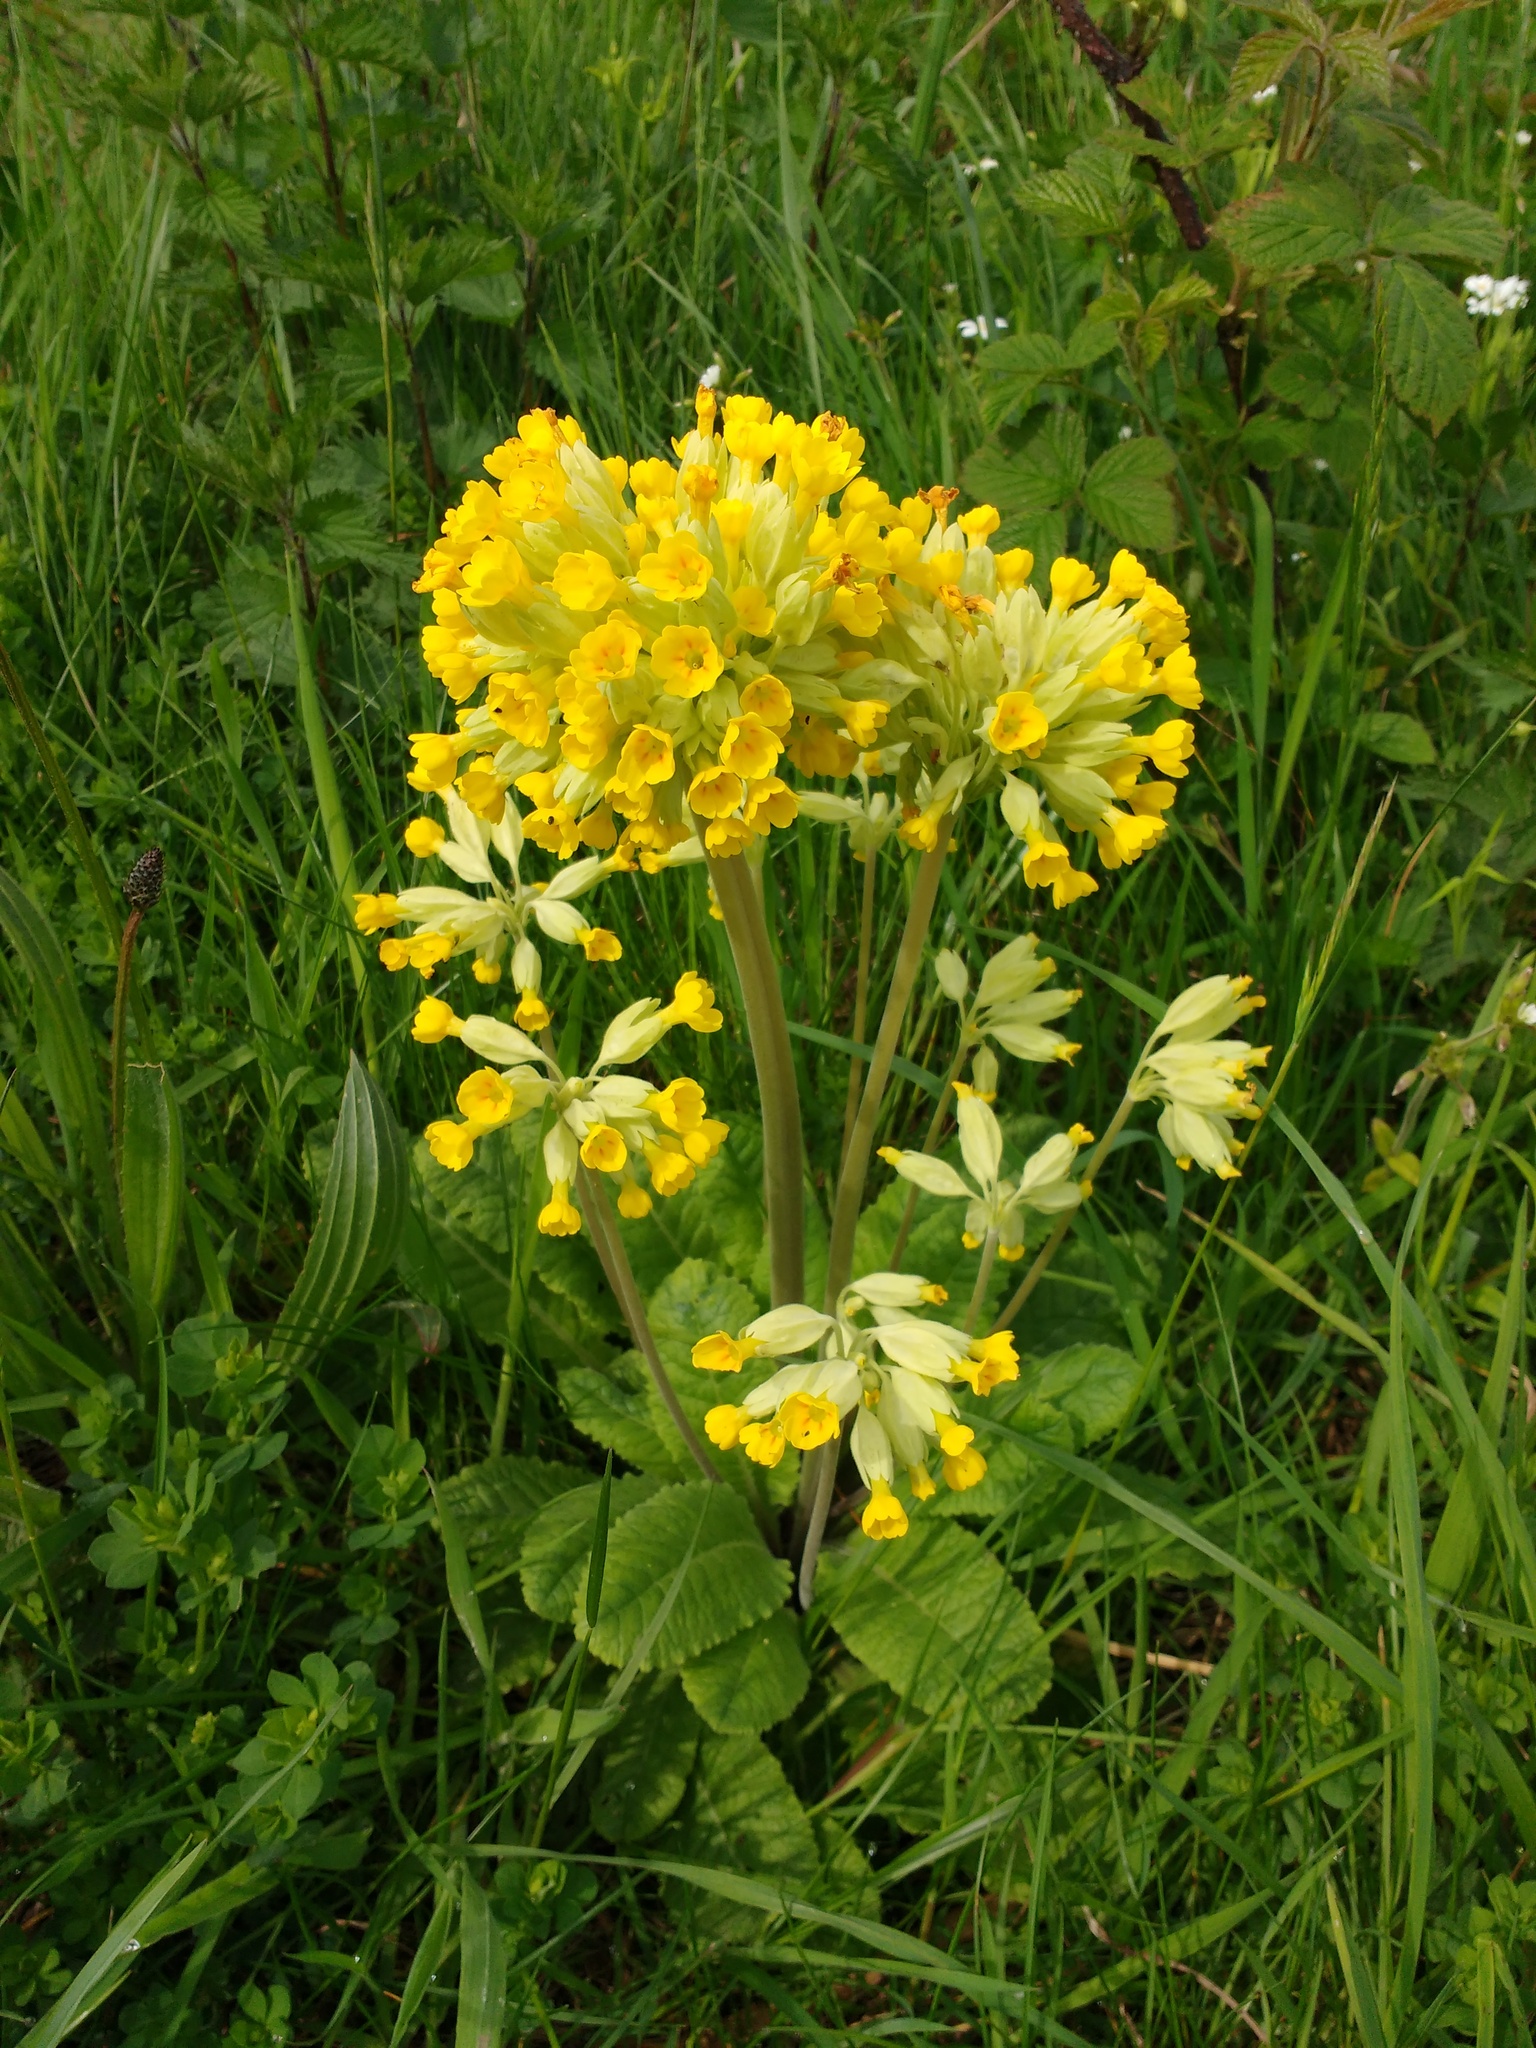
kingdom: Plantae
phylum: Tracheophyta
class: Magnoliopsida
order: Ericales
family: Primulaceae
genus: Primula
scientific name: Primula veris
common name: Cowslip
